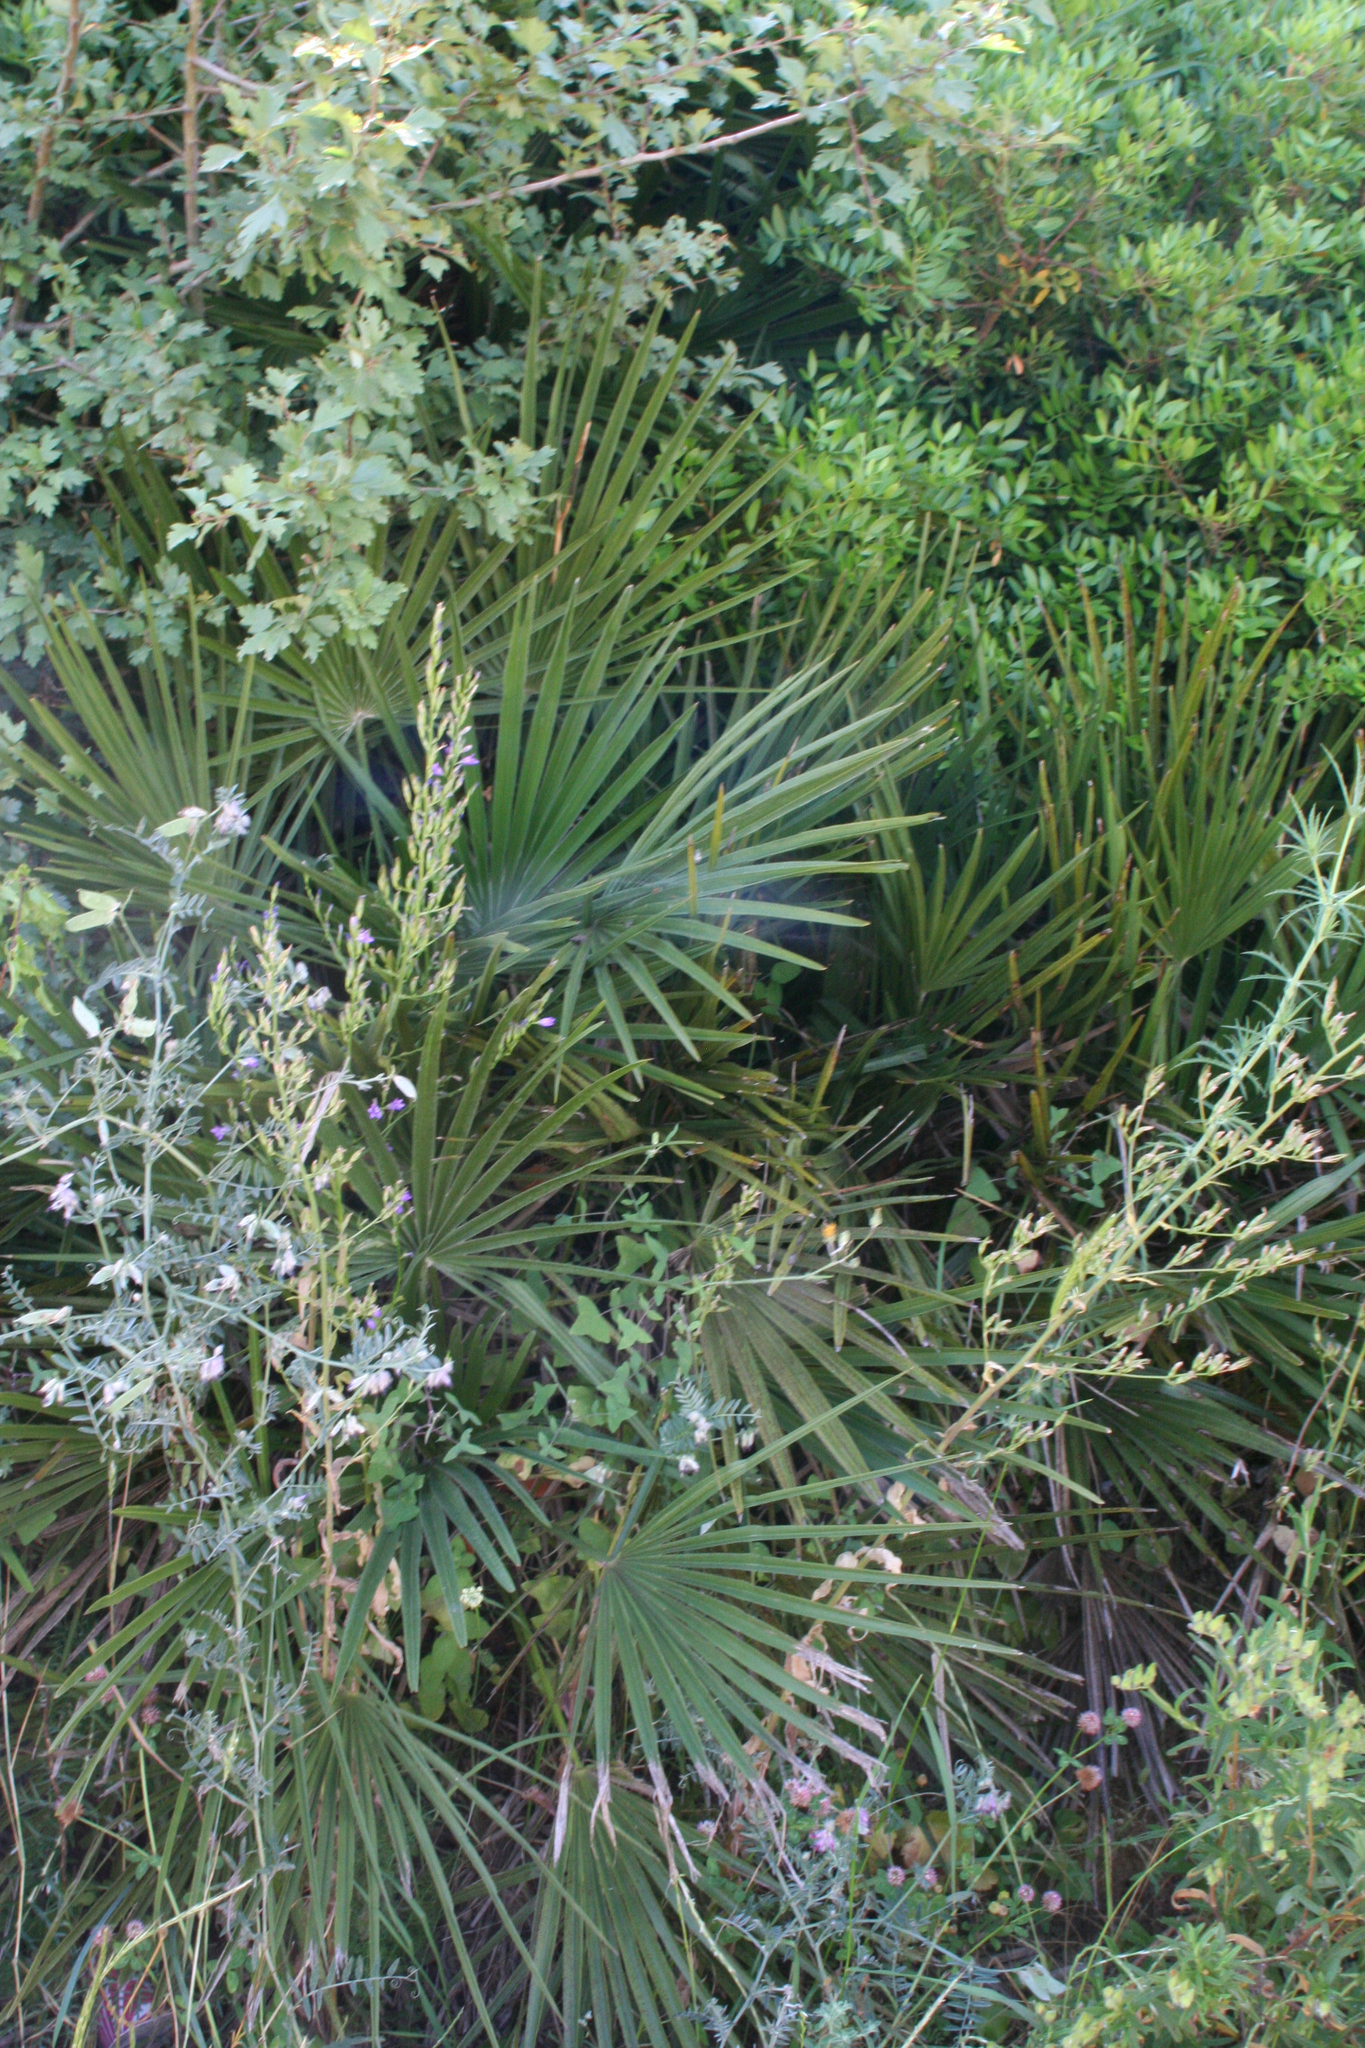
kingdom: Plantae
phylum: Tracheophyta
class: Liliopsida
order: Arecales
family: Arecaceae
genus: Chamaerops
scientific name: Chamaerops humilis
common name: Dwarf fan palm
